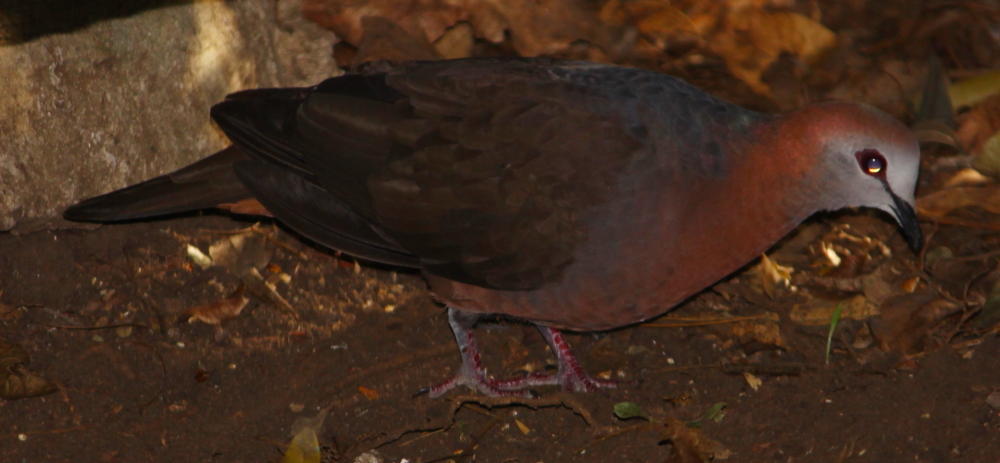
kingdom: Animalia
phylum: Chordata
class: Aves
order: Columbiformes
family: Columbidae
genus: Columba
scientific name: Columba larvata
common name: Lemon dove
